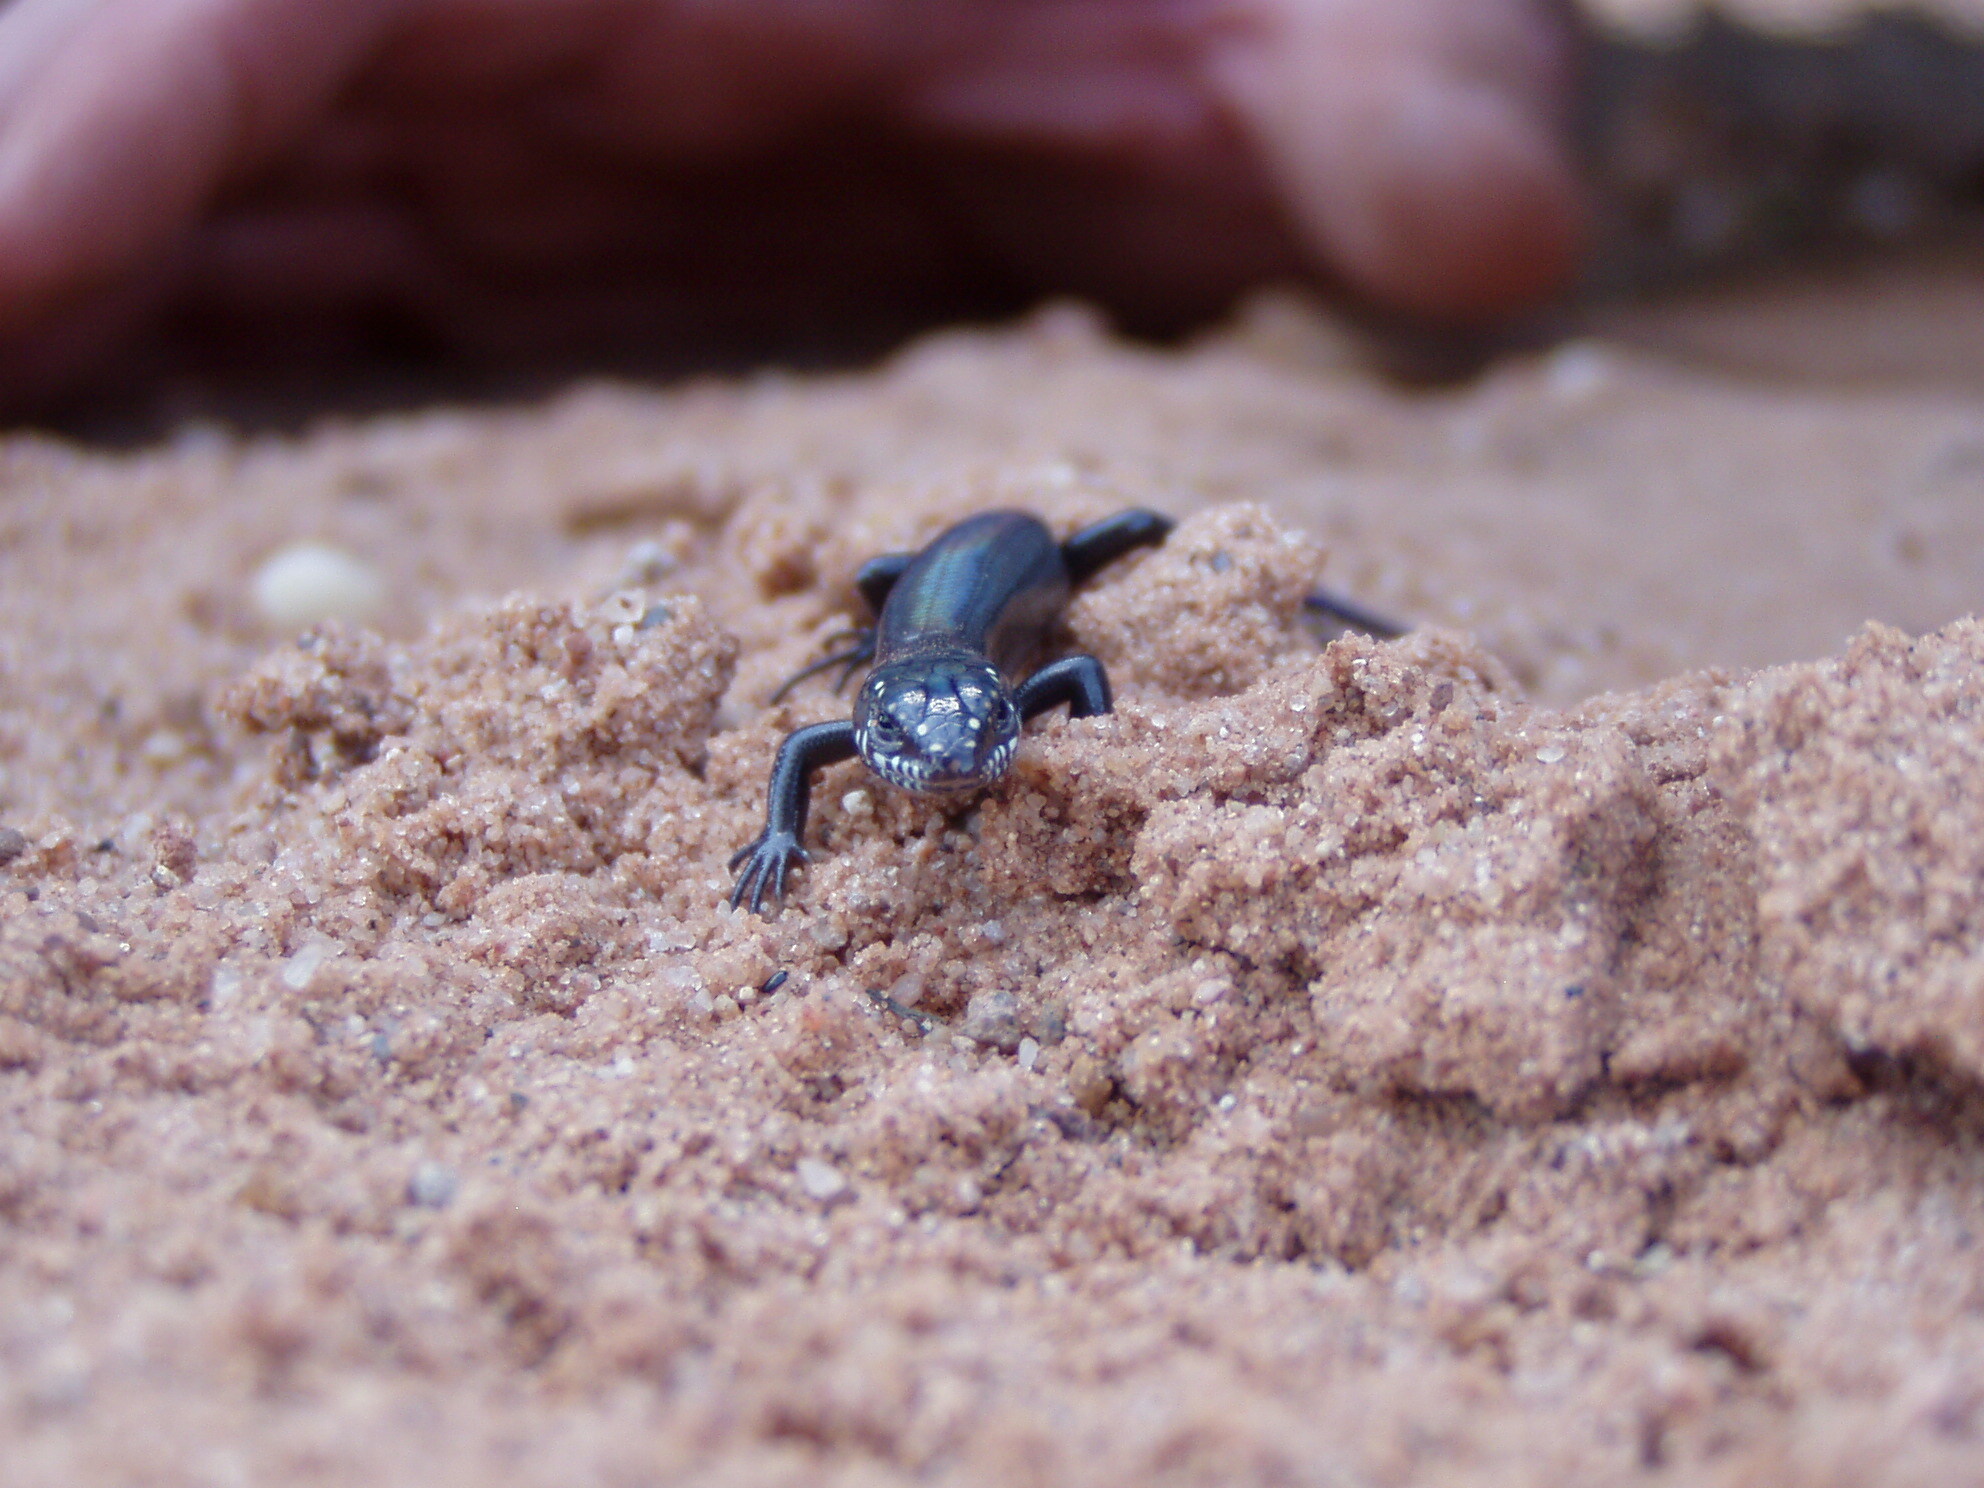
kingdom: Animalia
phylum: Chordata
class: Squamata
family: Scincidae
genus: Plestiodon
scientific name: Plestiodon obsoletus
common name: Great plains skink
